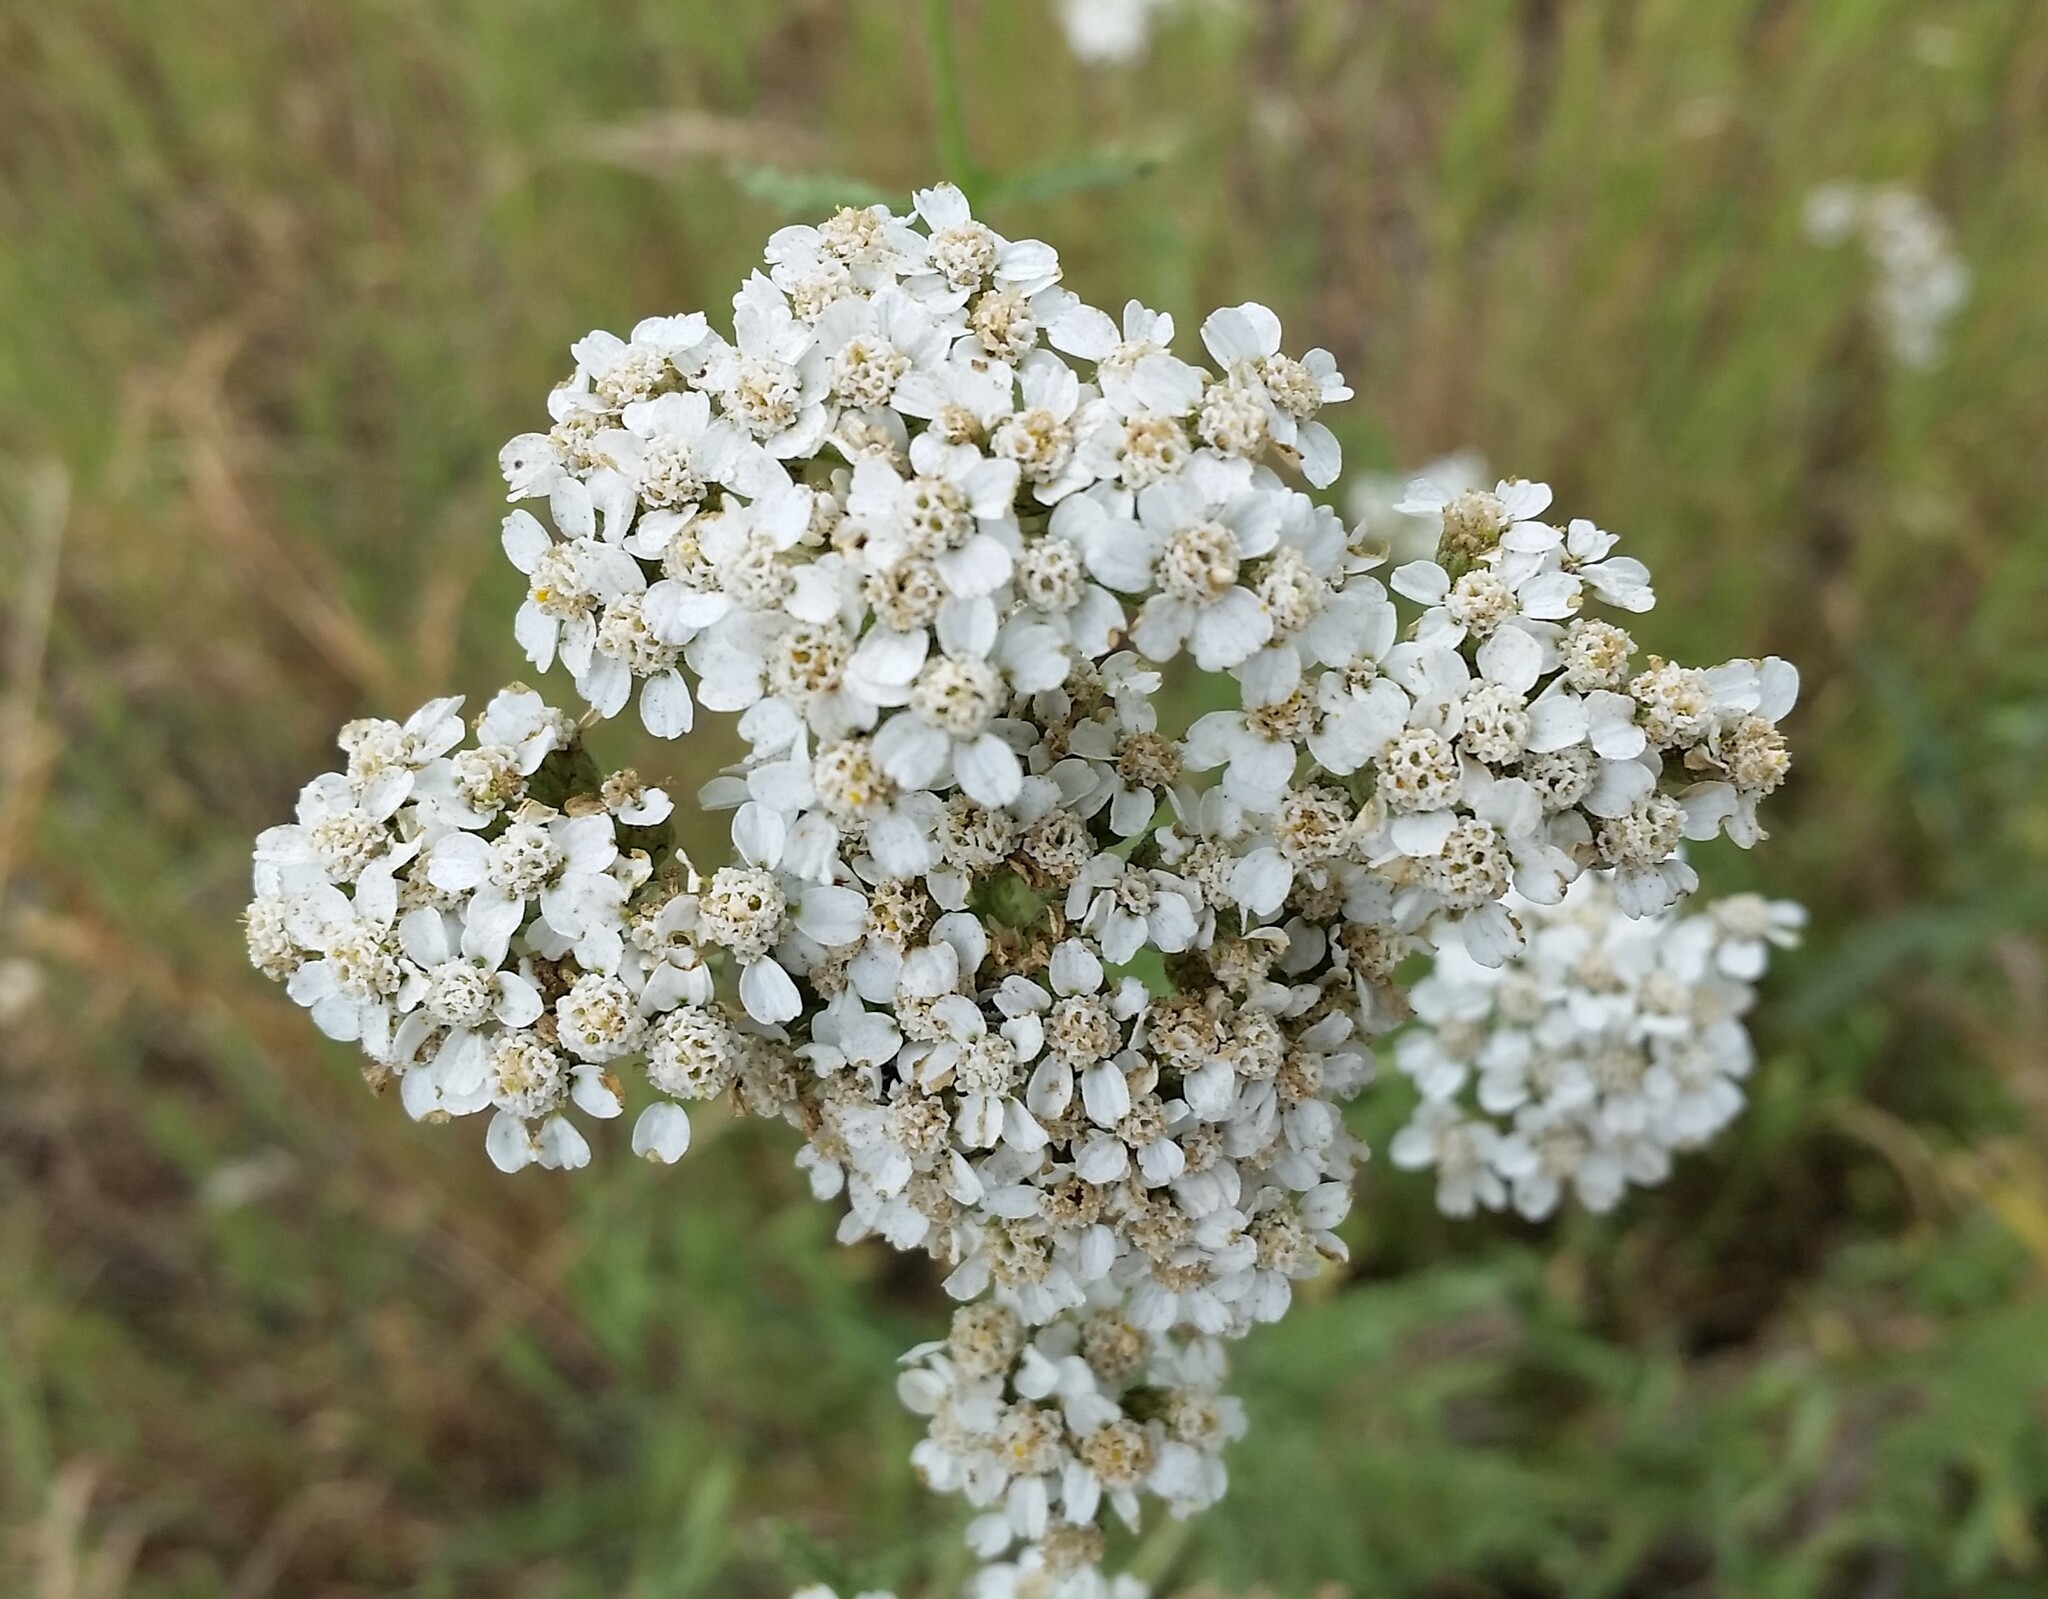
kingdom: Plantae
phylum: Tracheophyta
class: Magnoliopsida
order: Asterales
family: Asteraceae
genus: Achillea
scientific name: Achillea millefolium
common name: Yarrow
